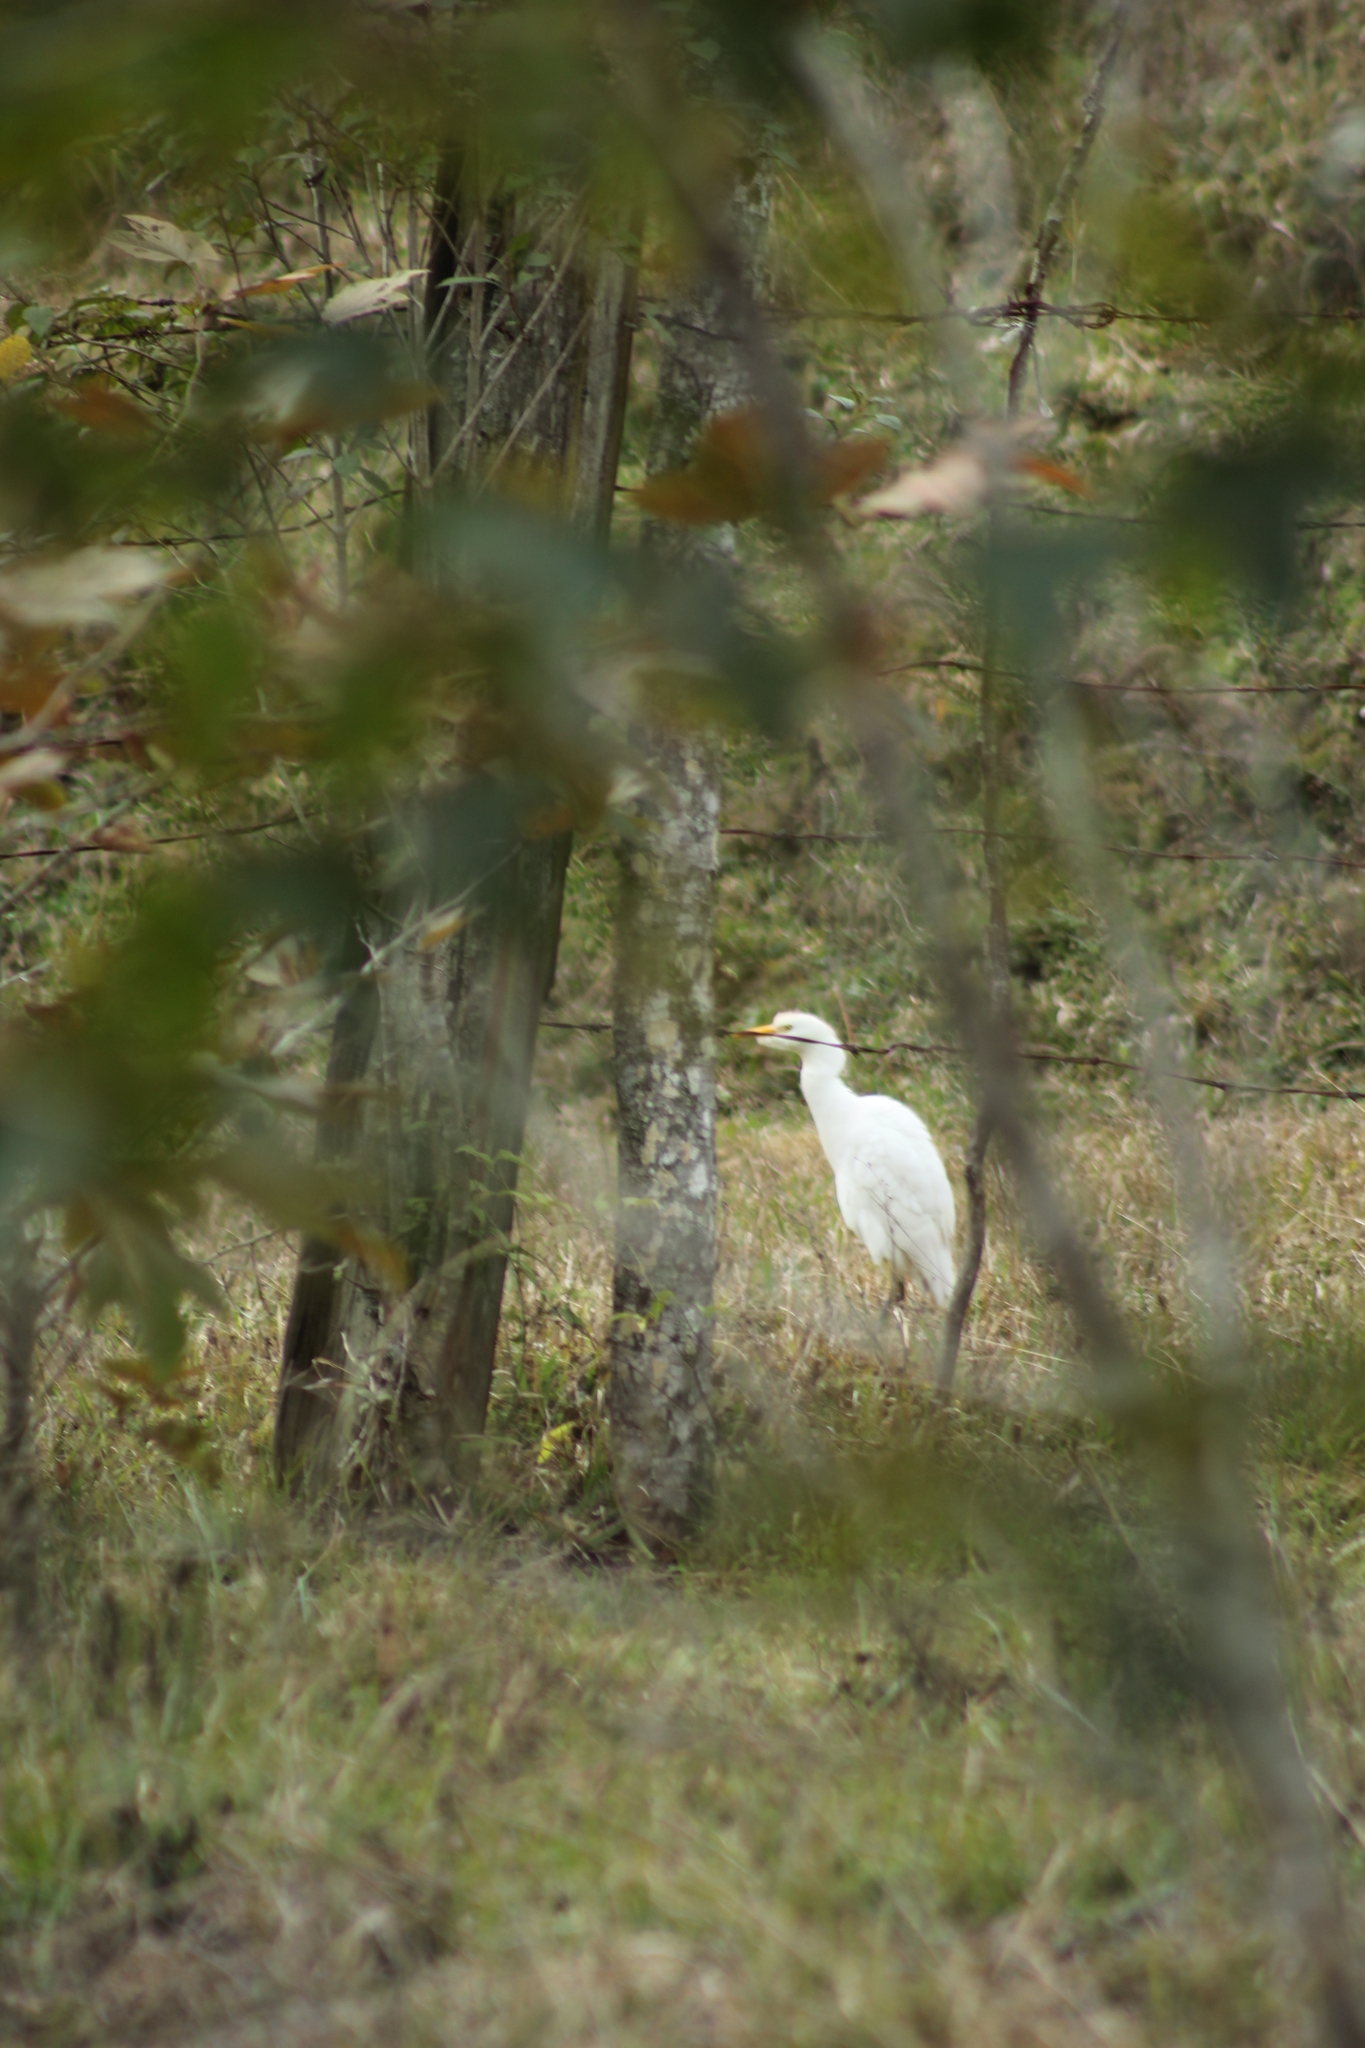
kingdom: Animalia
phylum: Chordata
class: Aves
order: Pelecaniformes
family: Ardeidae
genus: Bubulcus
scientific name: Bubulcus ibis
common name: Cattle egret
